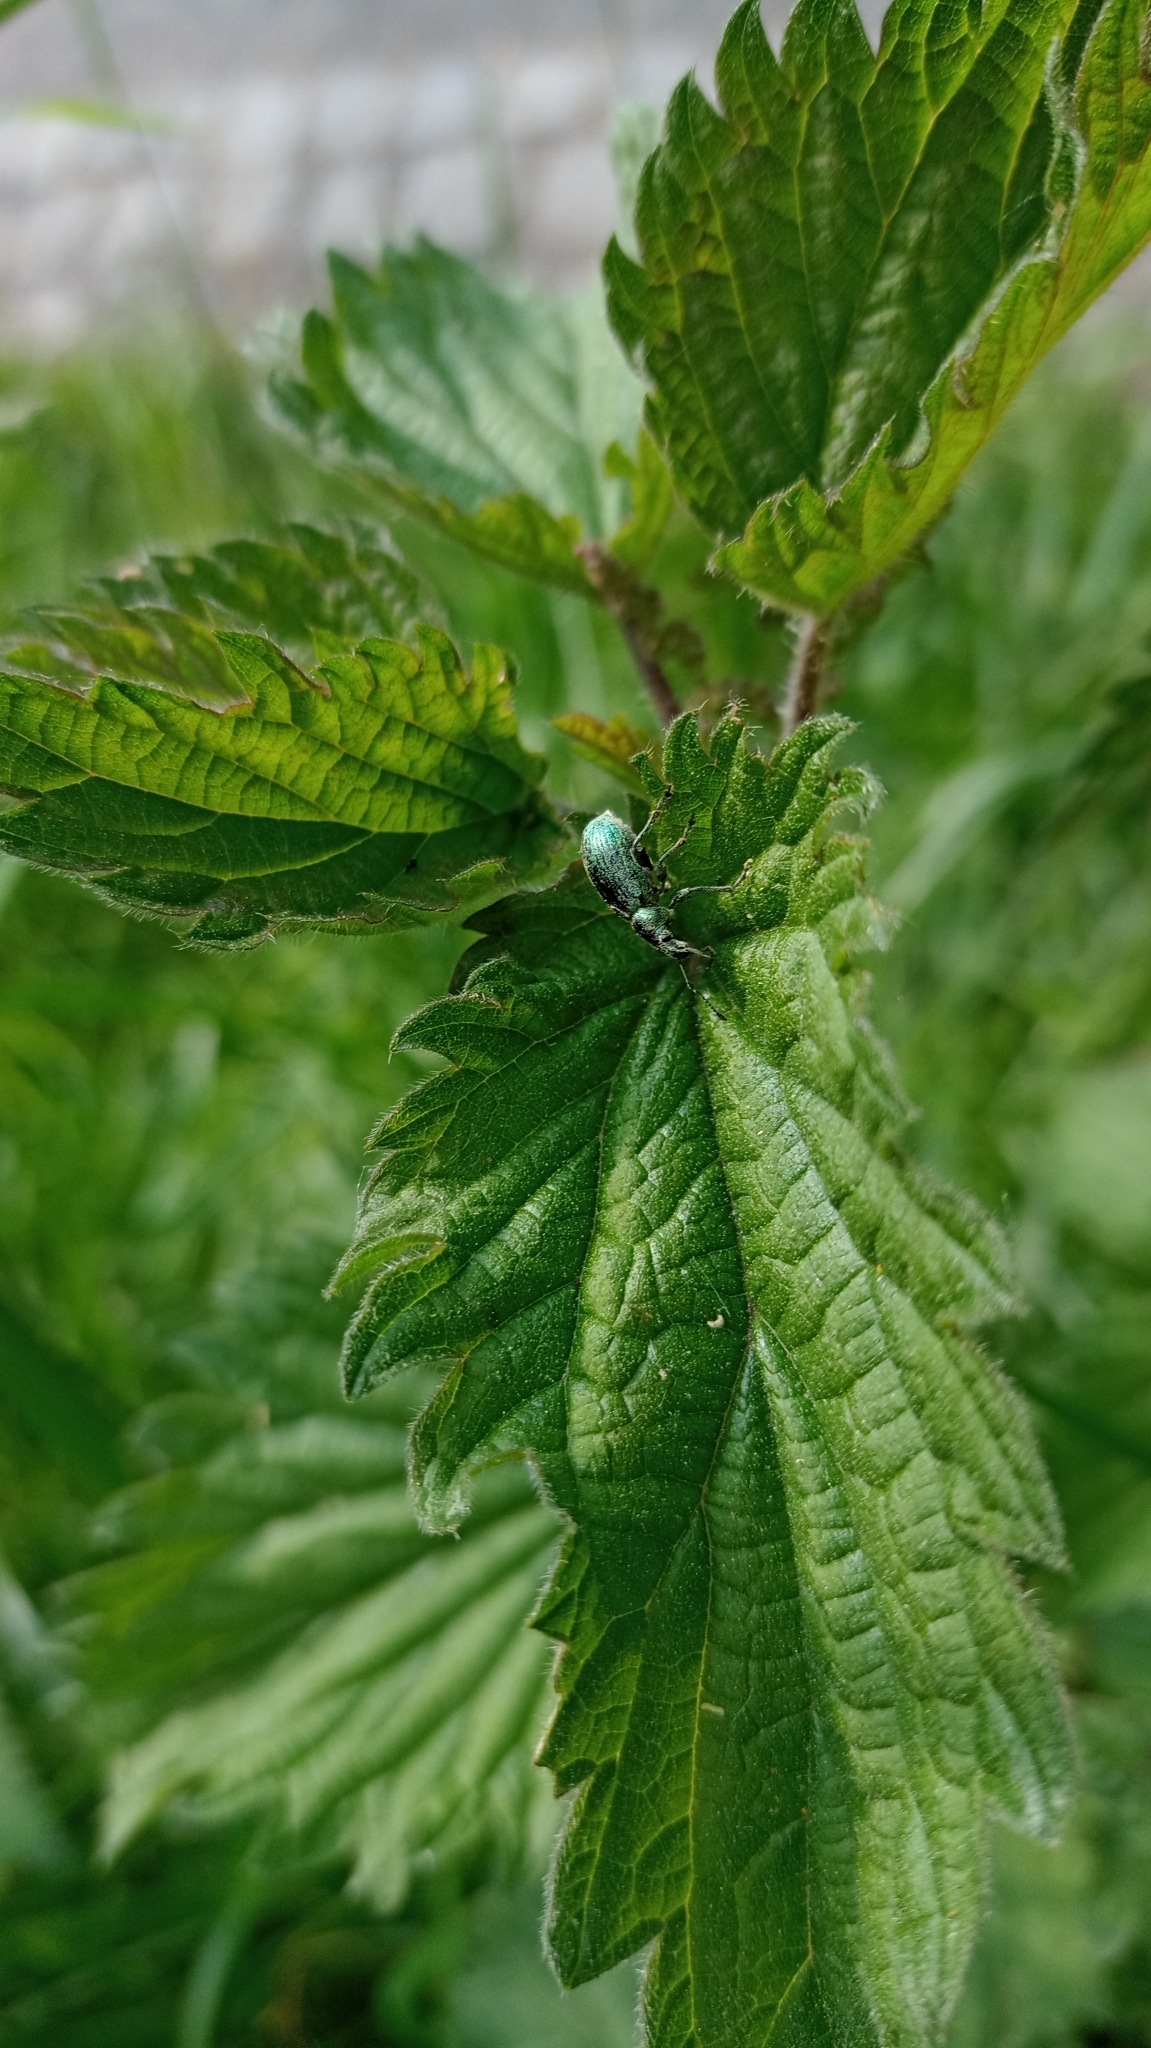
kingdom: Animalia
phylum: Arthropoda
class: Insecta
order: Coleoptera
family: Curculionidae
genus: Phyllobius
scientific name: Phyllobius pomaceus
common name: Green nettle weevil
